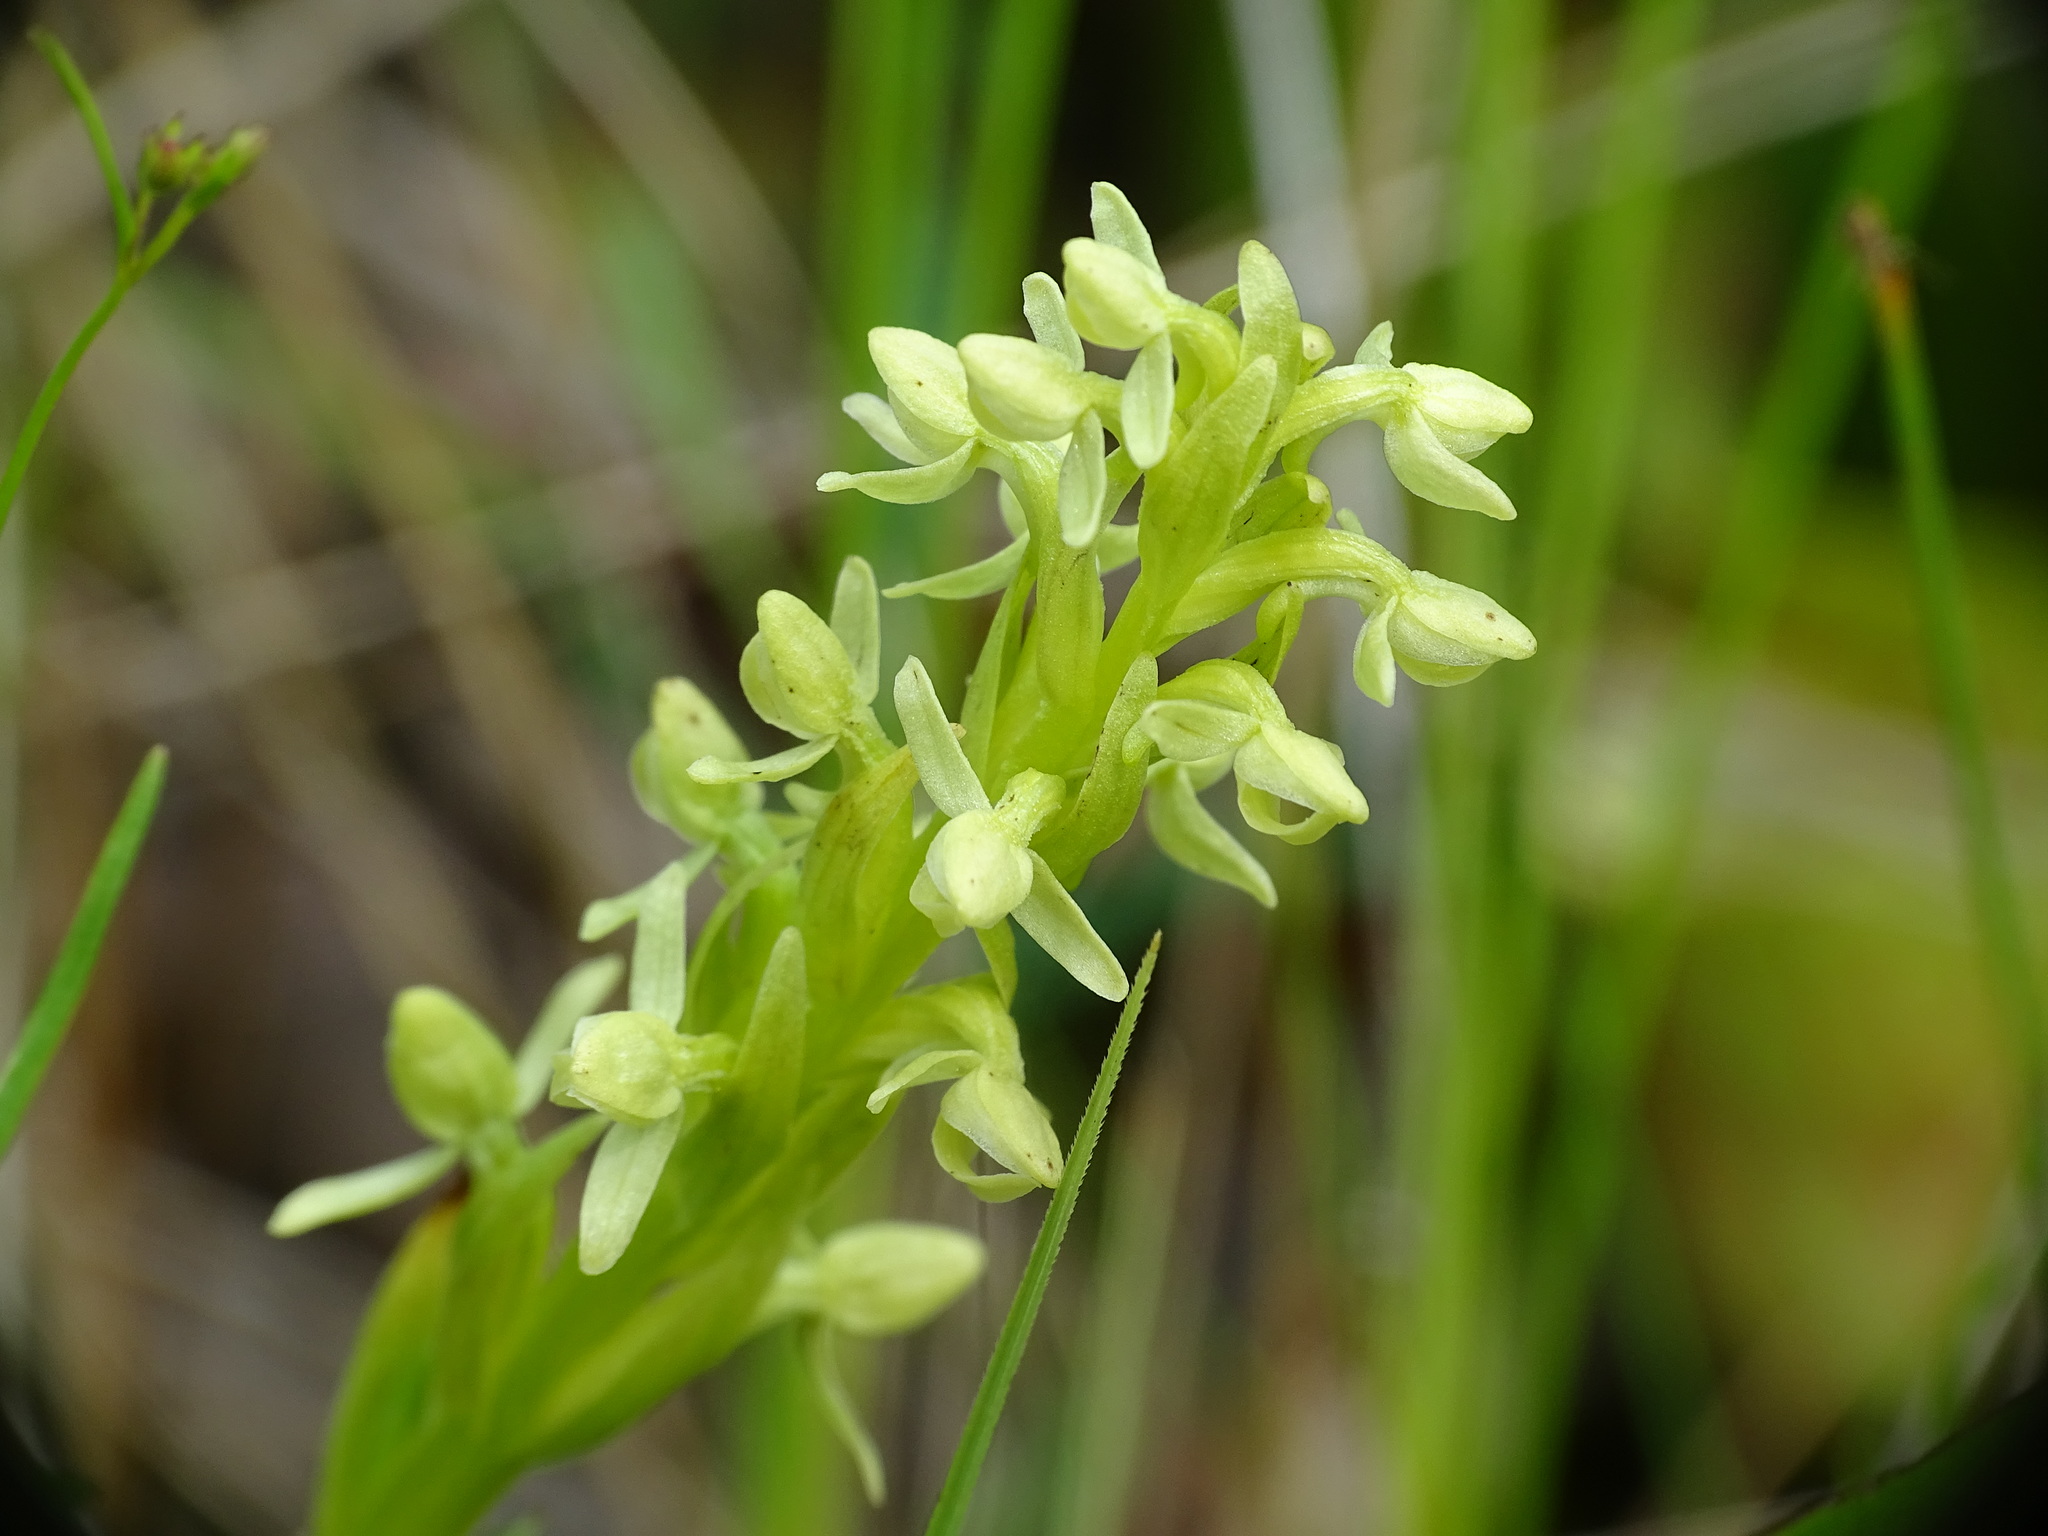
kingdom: Plantae
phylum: Tracheophyta
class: Liliopsida
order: Asparagales
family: Orchidaceae
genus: Platanthera
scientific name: Platanthera huronensis
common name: Fragrant green orchid
